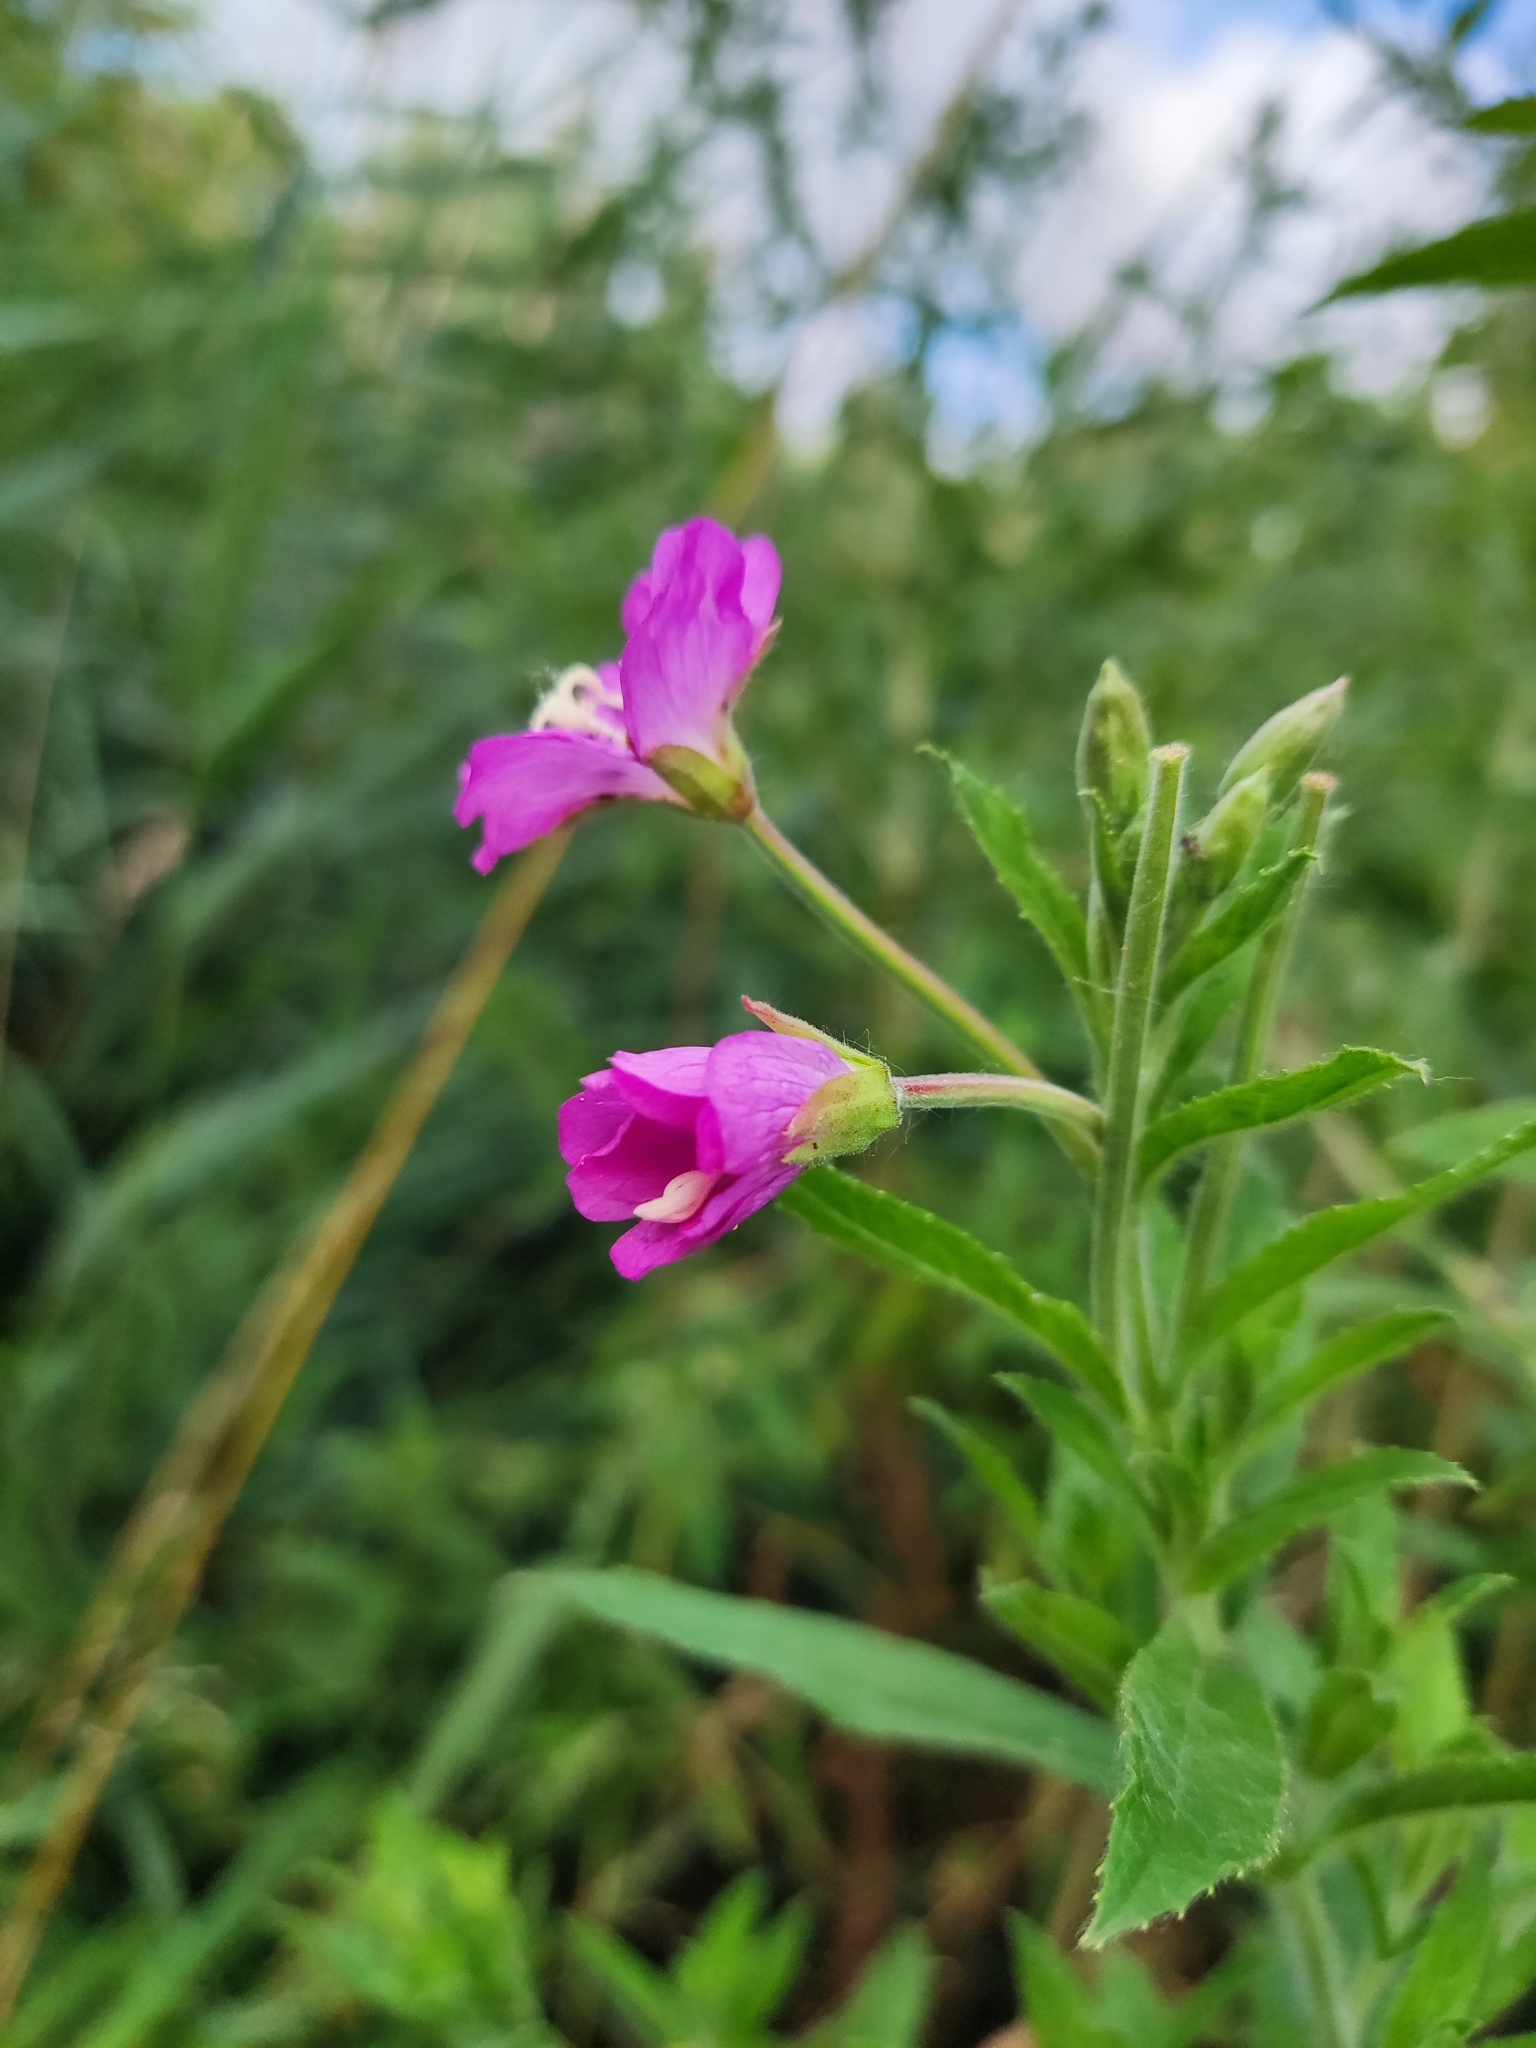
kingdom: Plantae
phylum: Tracheophyta
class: Magnoliopsida
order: Myrtales
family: Onagraceae
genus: Epilobium
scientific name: Epilobium hirsutum
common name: Great willowherb
